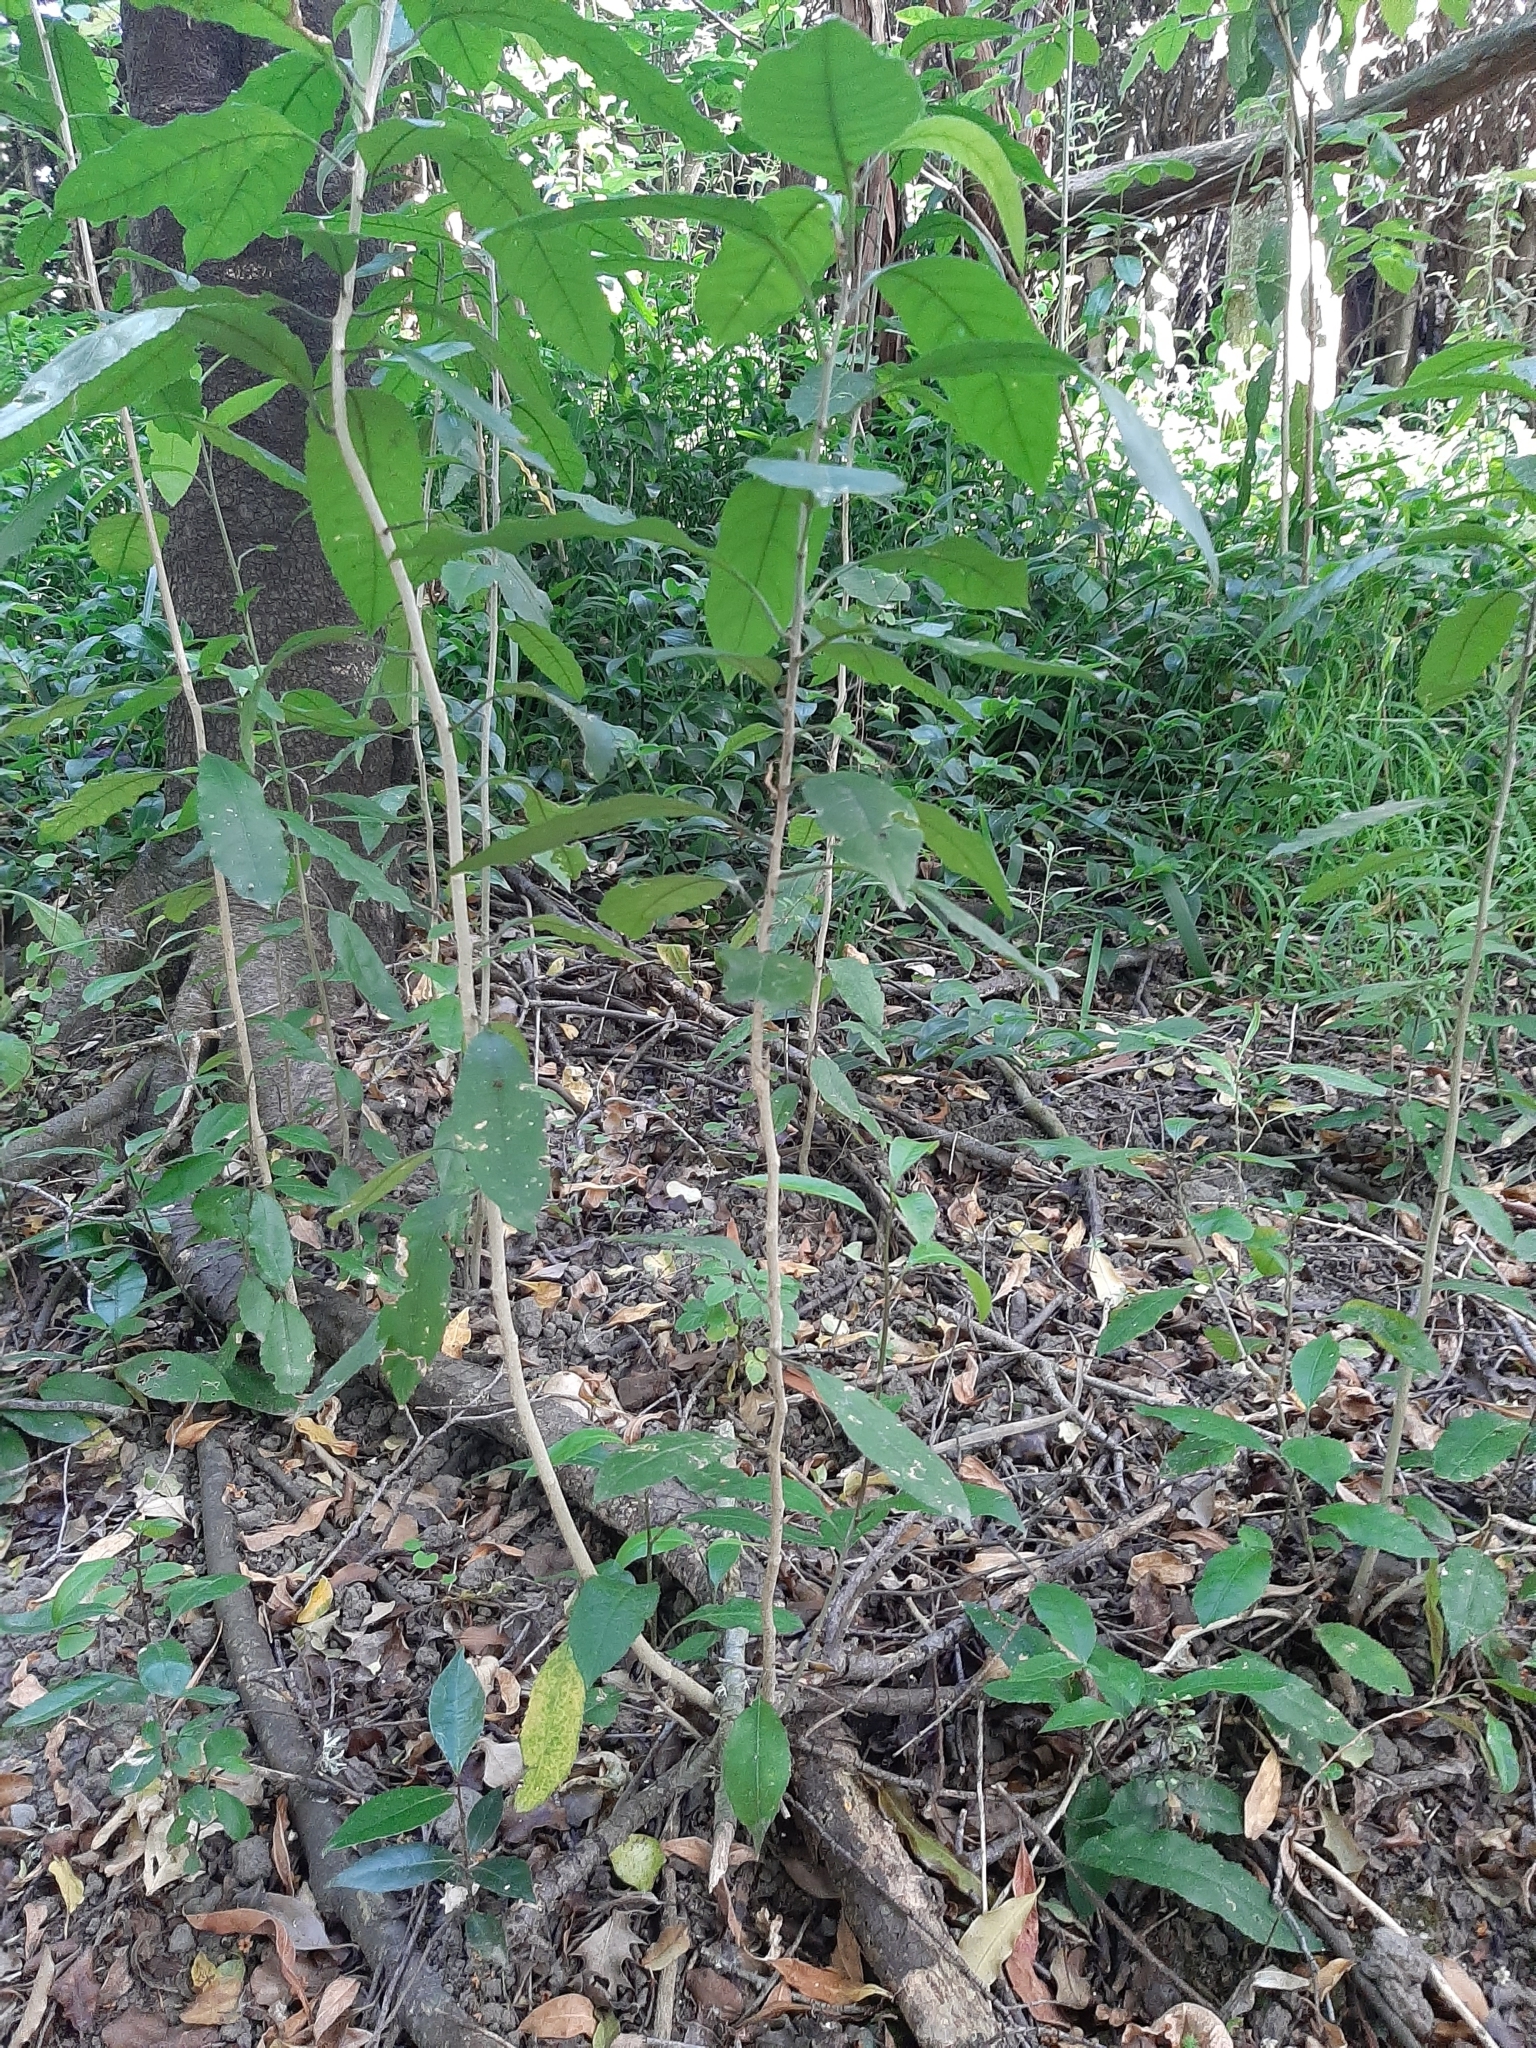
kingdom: Plantae
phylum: Tracheophyta
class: Magnoliopsida
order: Malpighiales
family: Violaceae
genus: Melicytus
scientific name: Melicytus ramiflorus
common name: Mahoe
